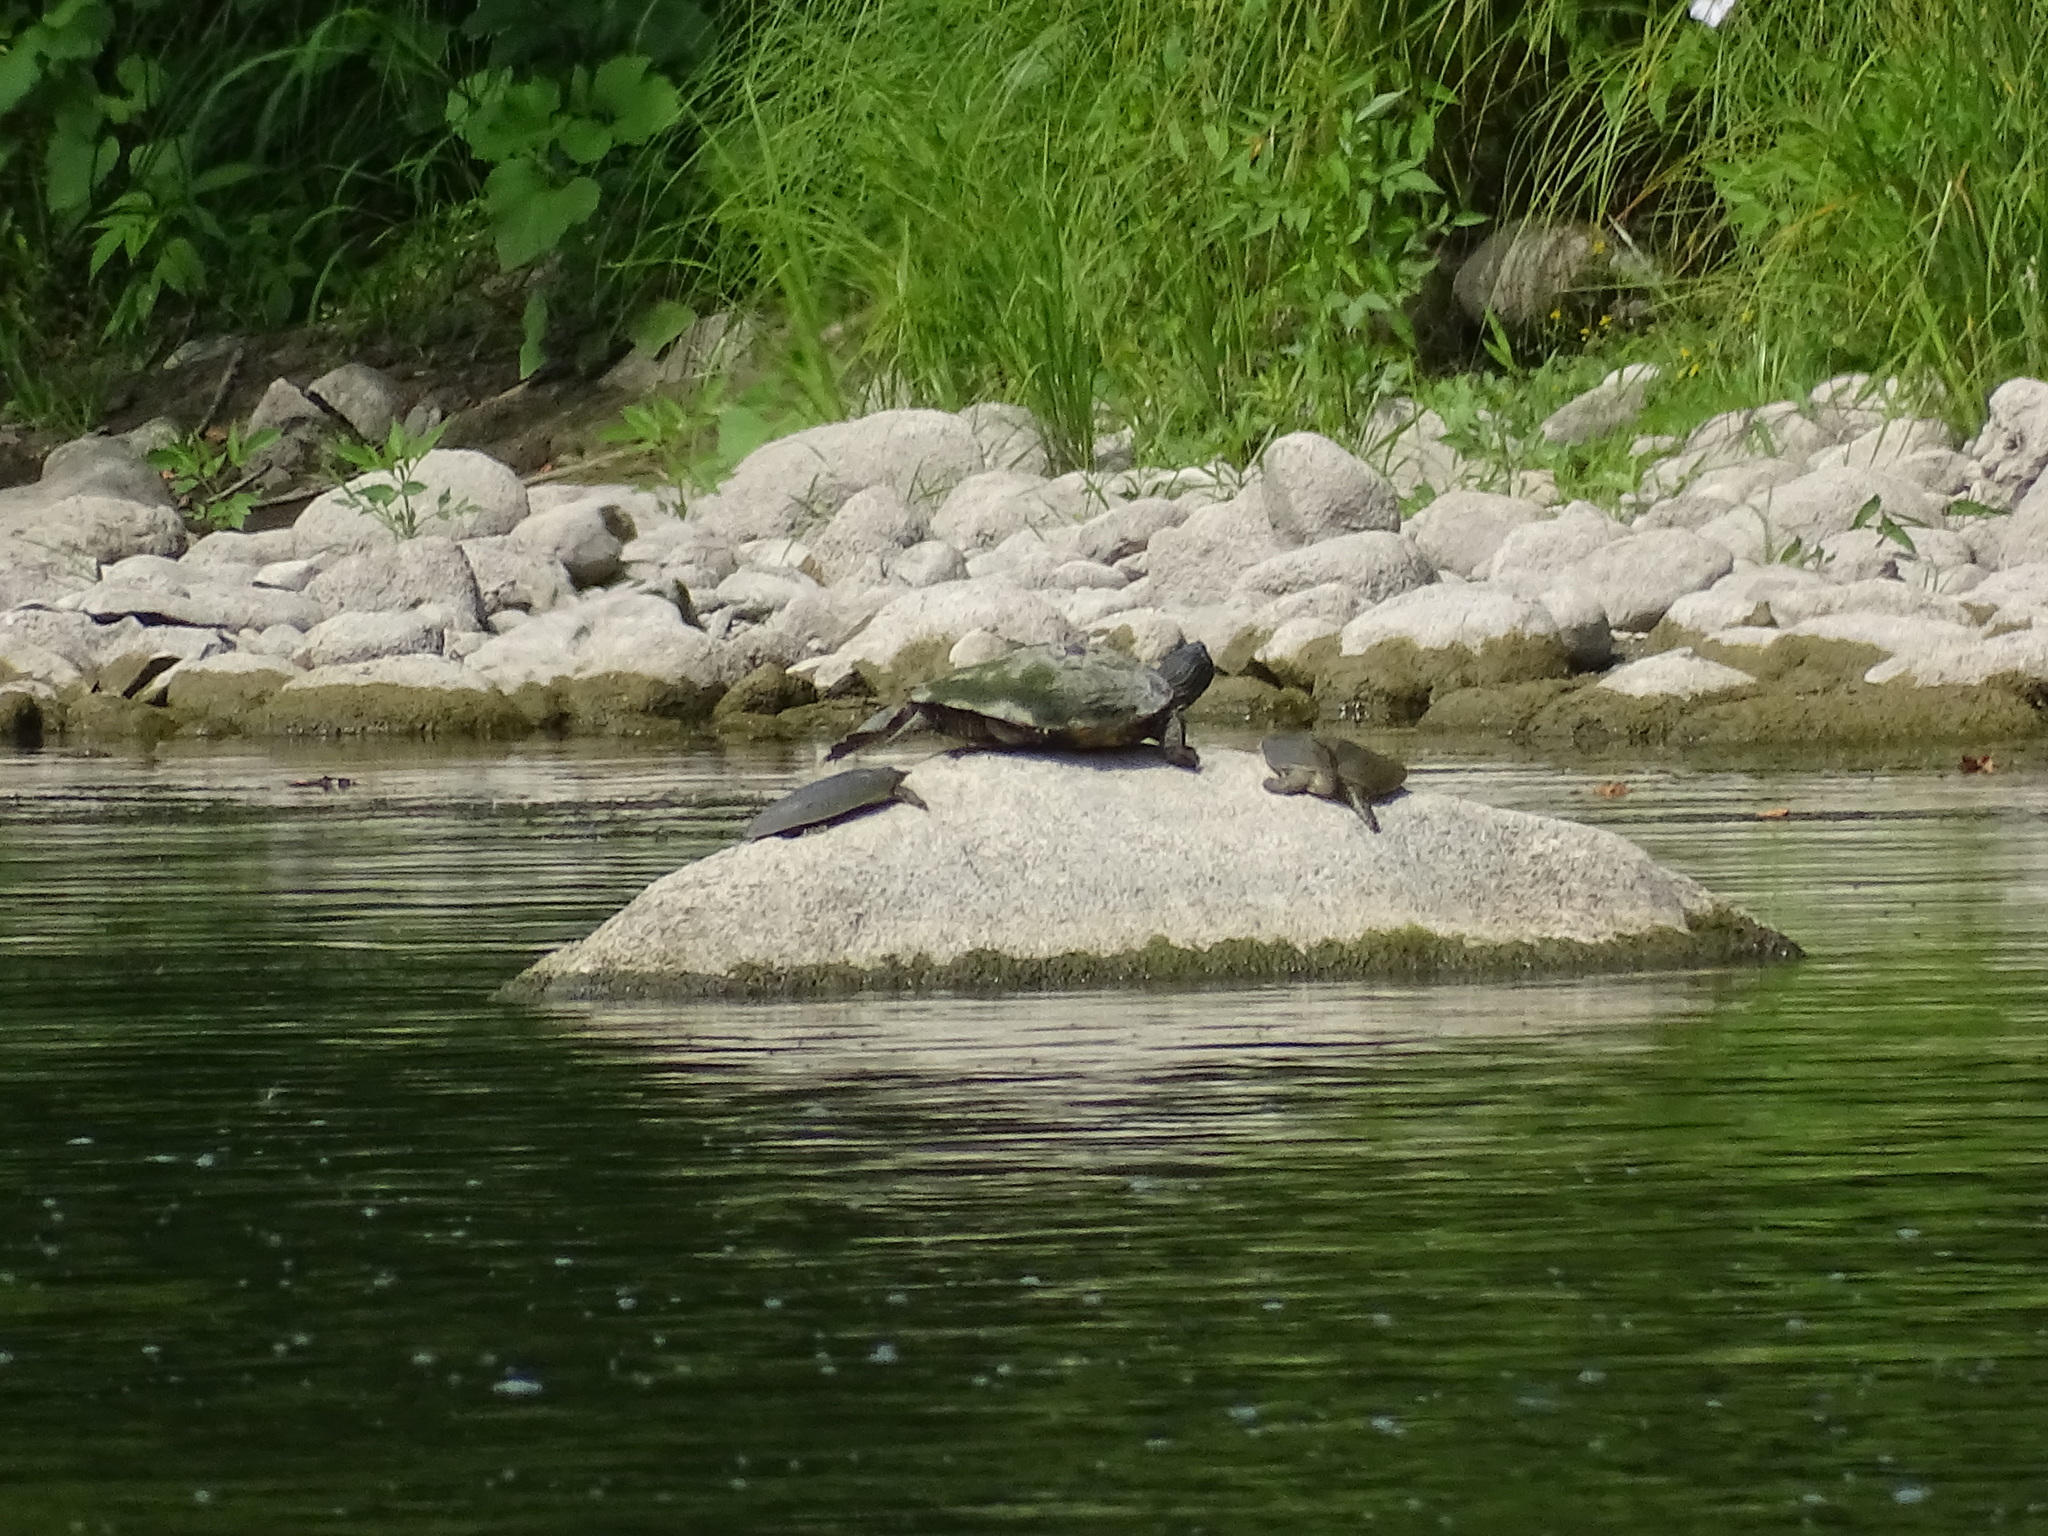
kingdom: Animalia
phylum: Chordata
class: Testudines
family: Emydidae
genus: Graptemys
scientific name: Graptemys geographica
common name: Common map turtle
